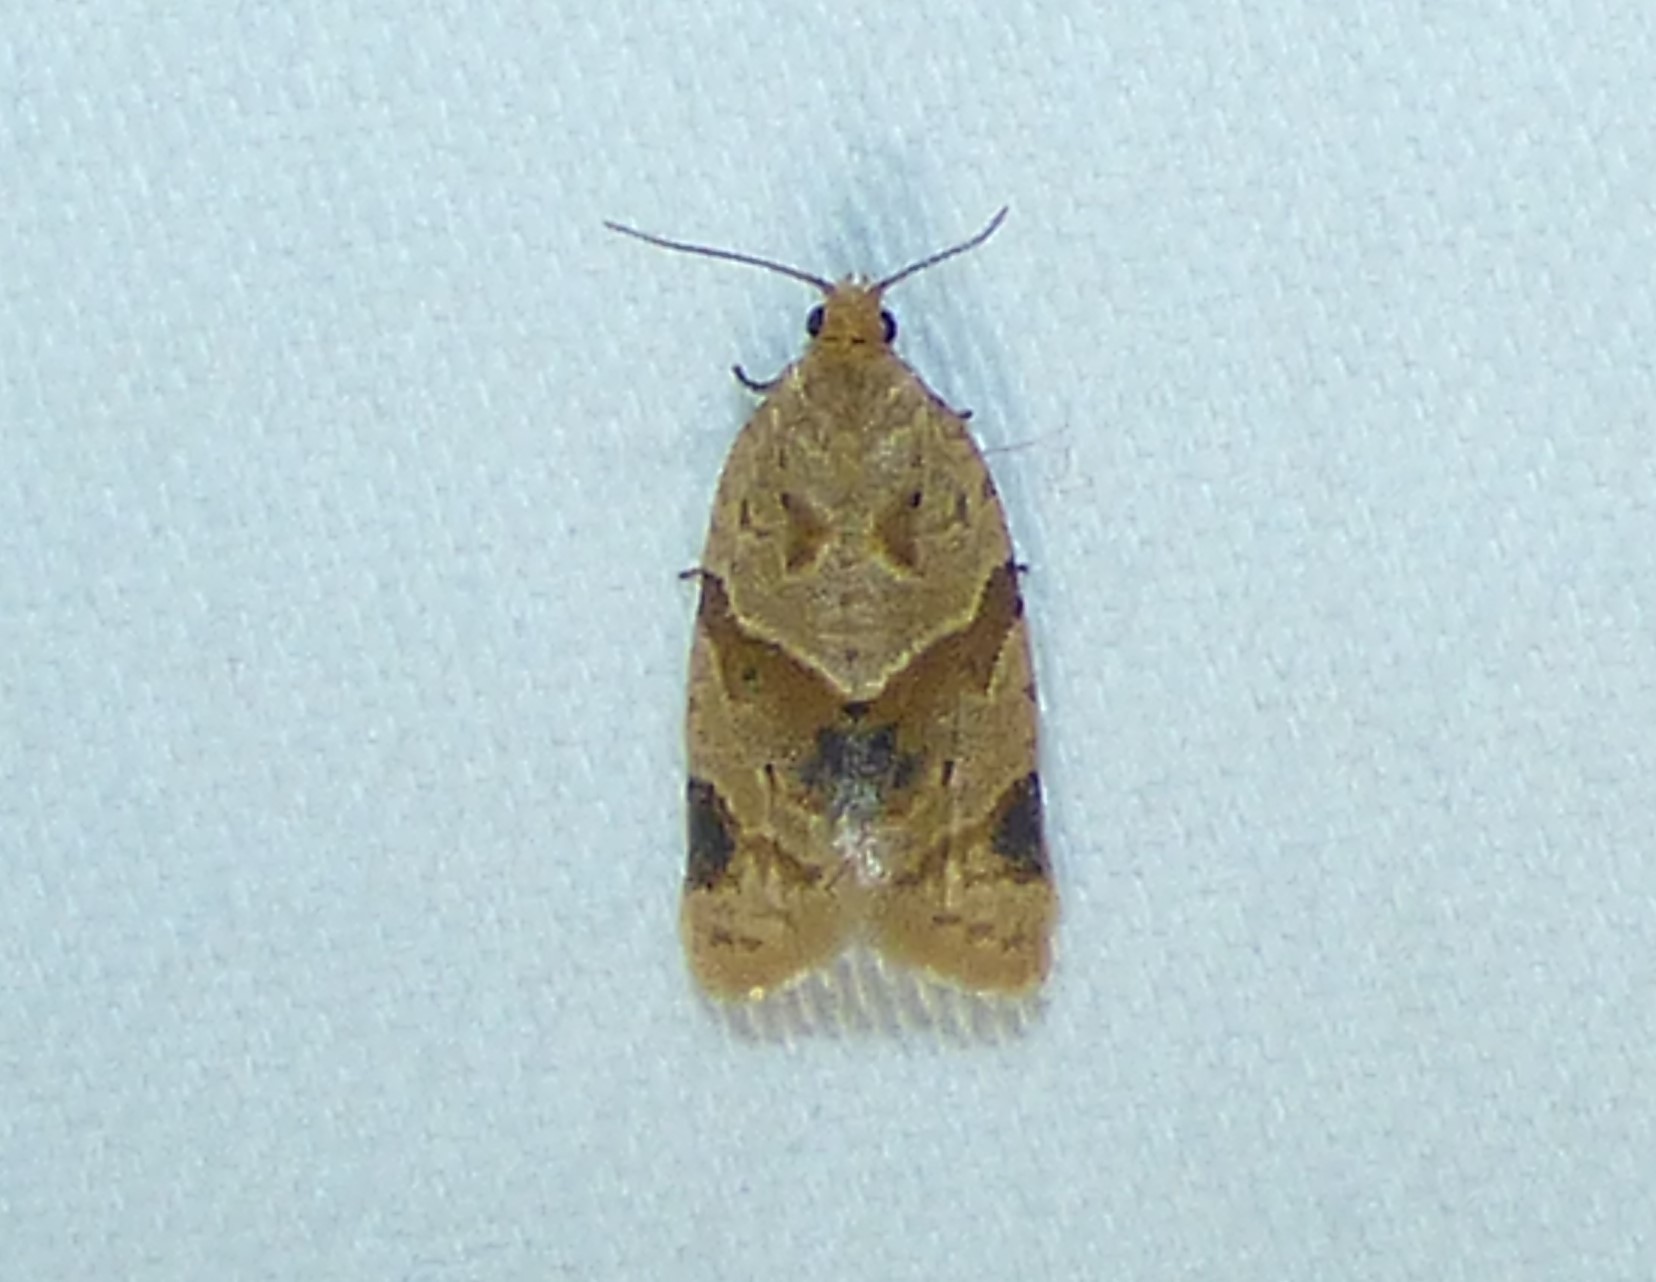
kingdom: Animalia
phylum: Arthropoda
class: Insecta
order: Lepidoptera
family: Tortricidae
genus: Clepsis
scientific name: Clepsis peritana
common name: Garden tortrix
